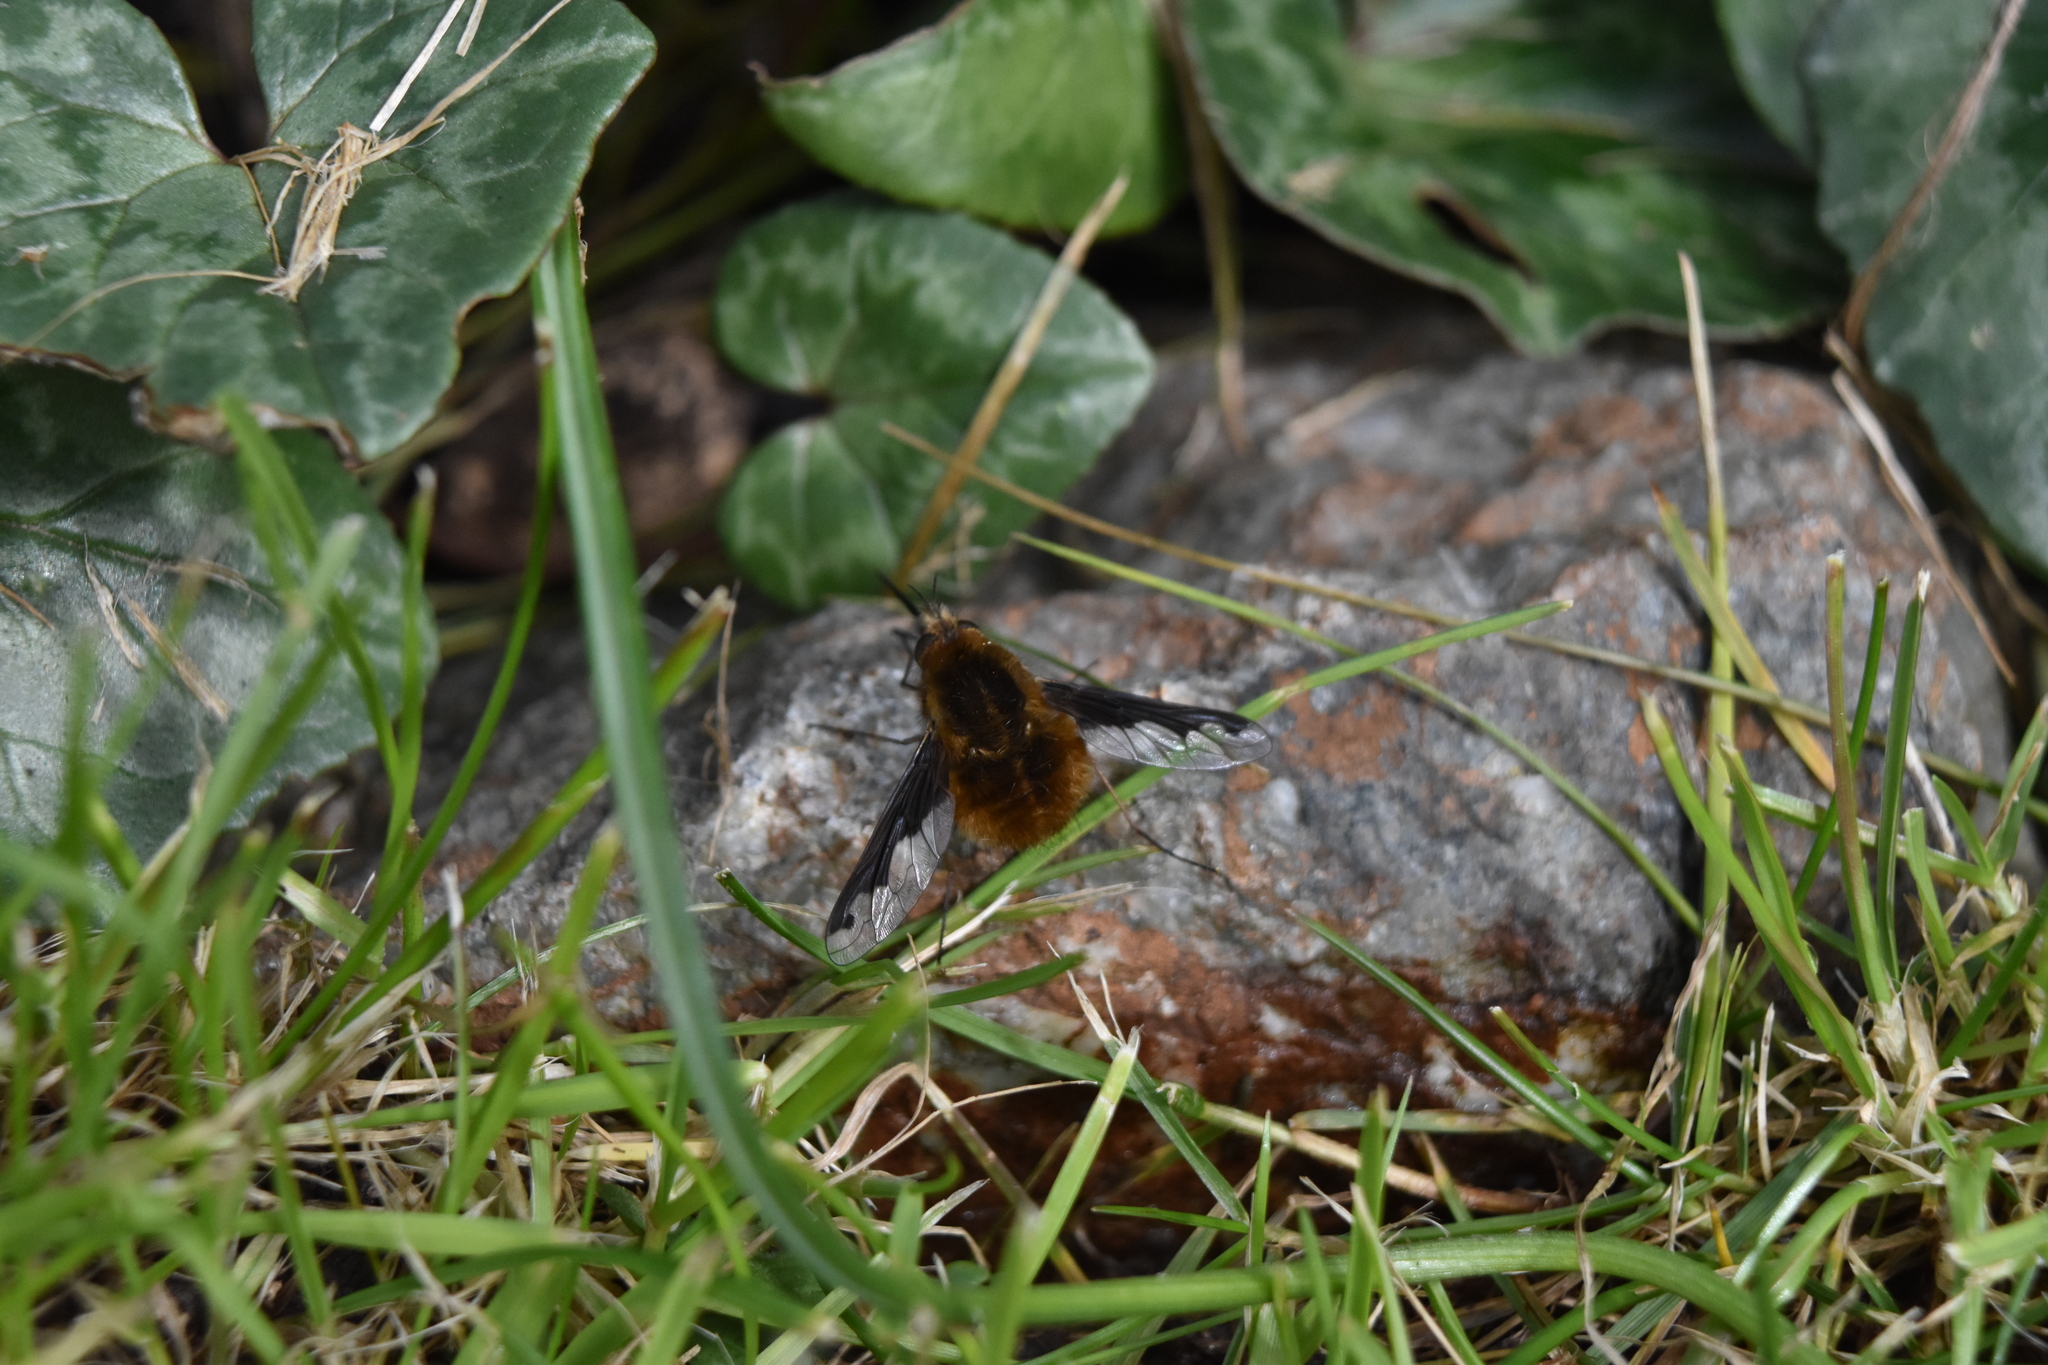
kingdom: Animalia
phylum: Arthropoda
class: Insecta
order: Diptera
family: Bombyliidae
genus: Bombylius
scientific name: Bombylius major
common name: Bee fly
